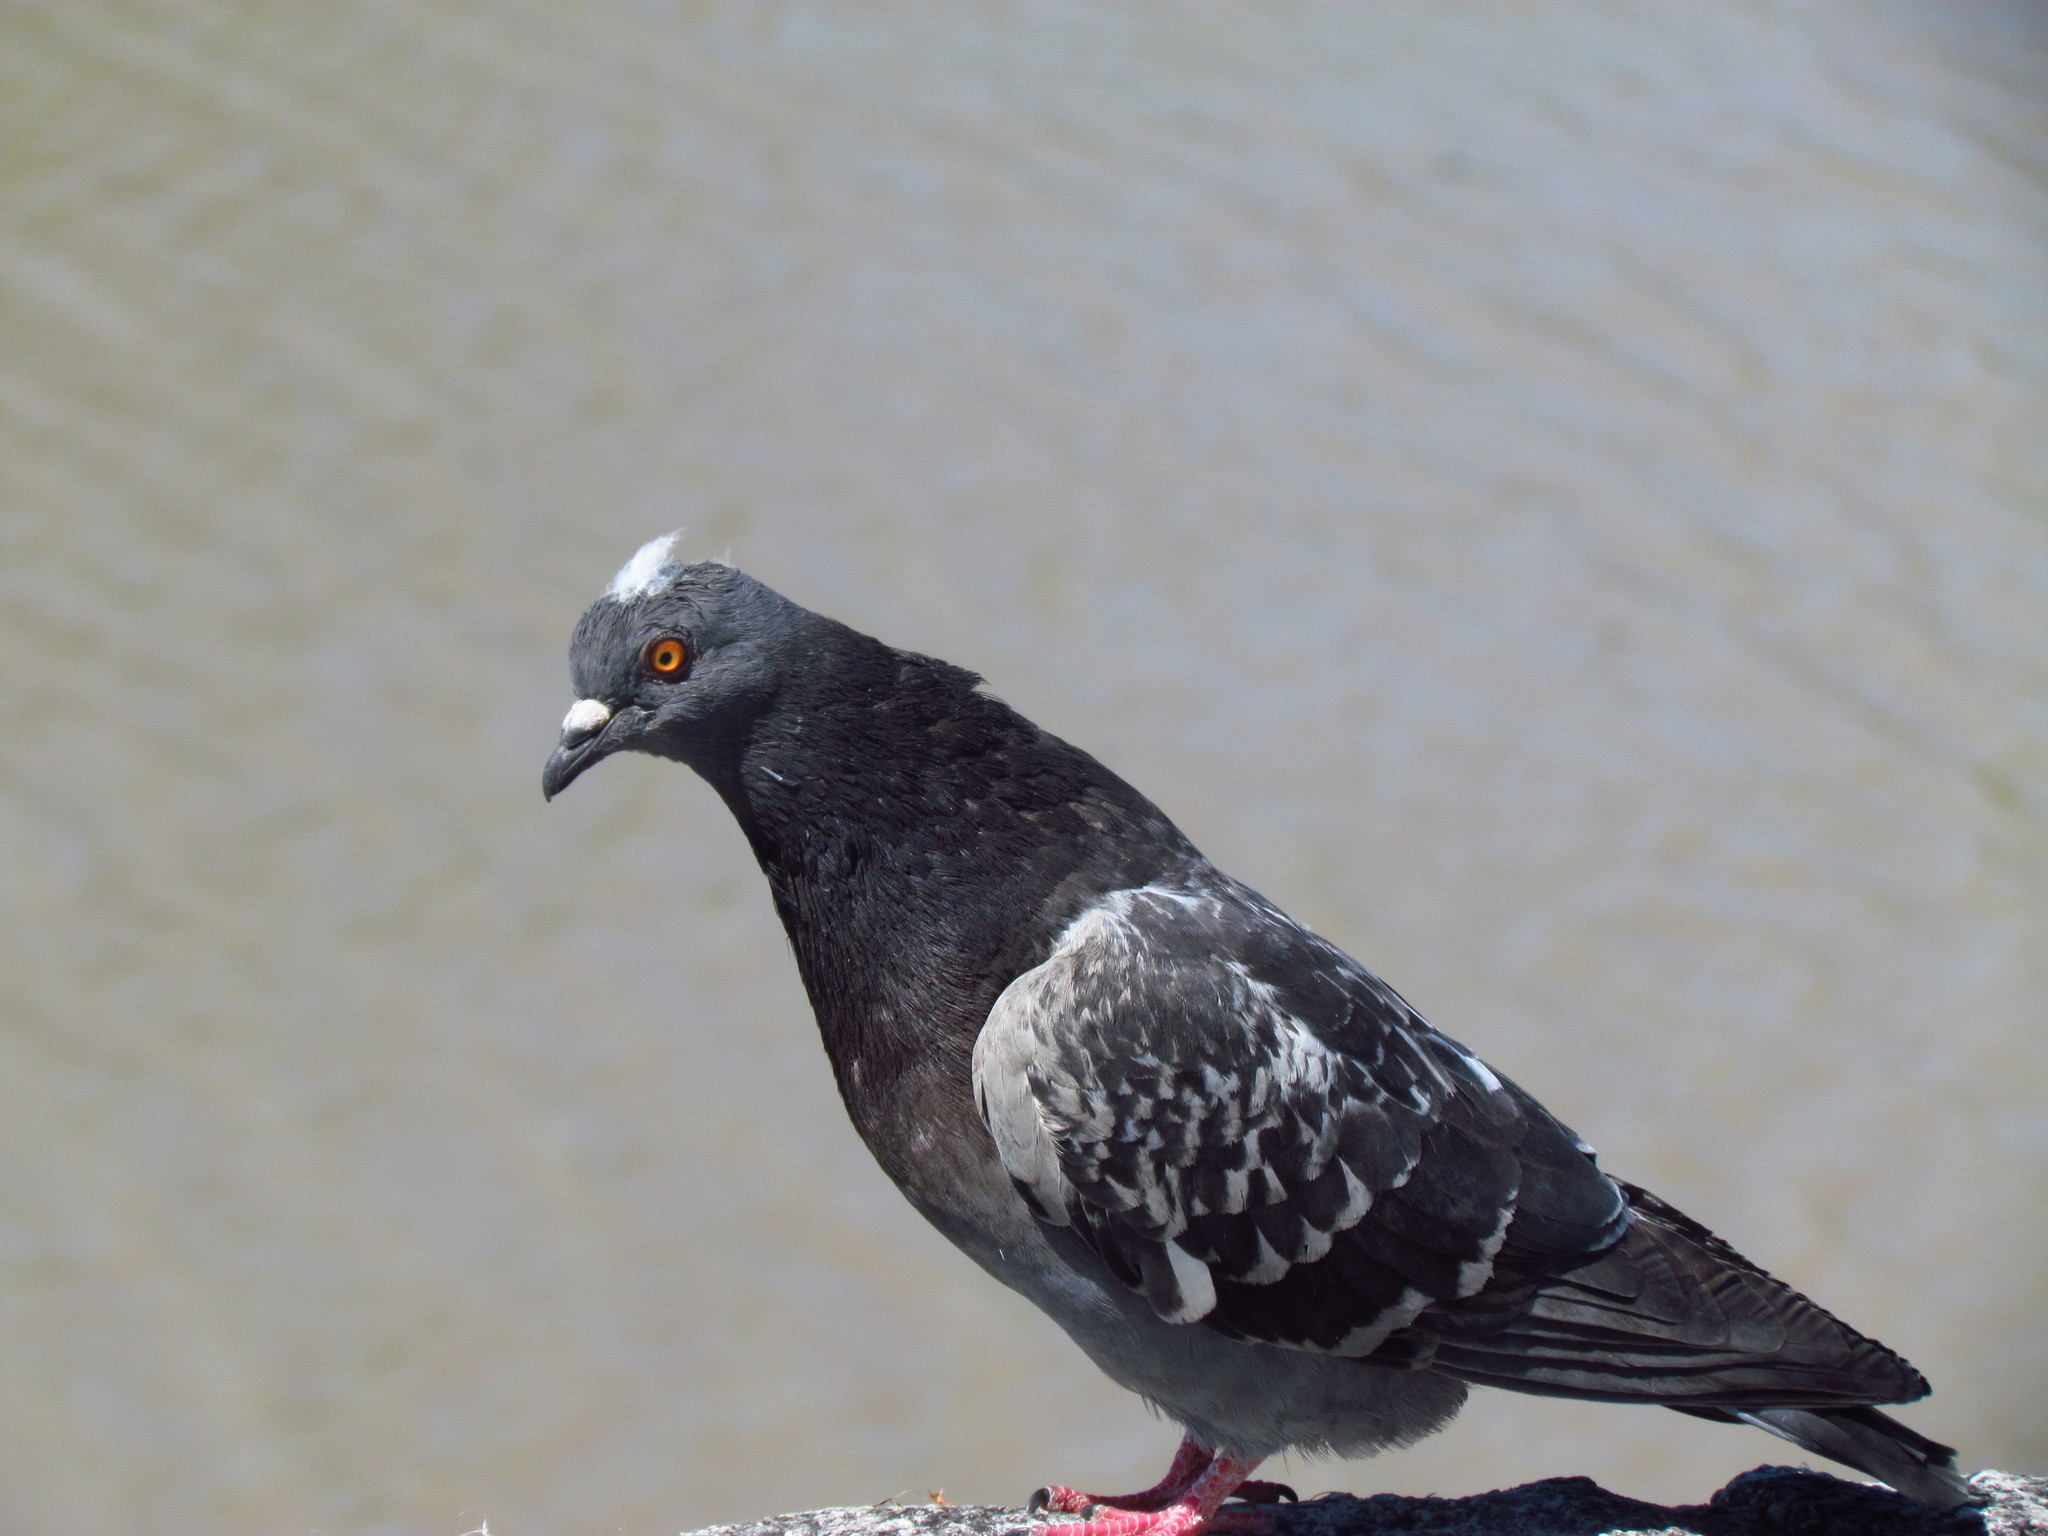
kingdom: Animalia
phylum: Chordata
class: Aves
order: Columbiformes
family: Columbidae
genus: Columba
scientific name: Columba livia
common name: Rock pigeon
